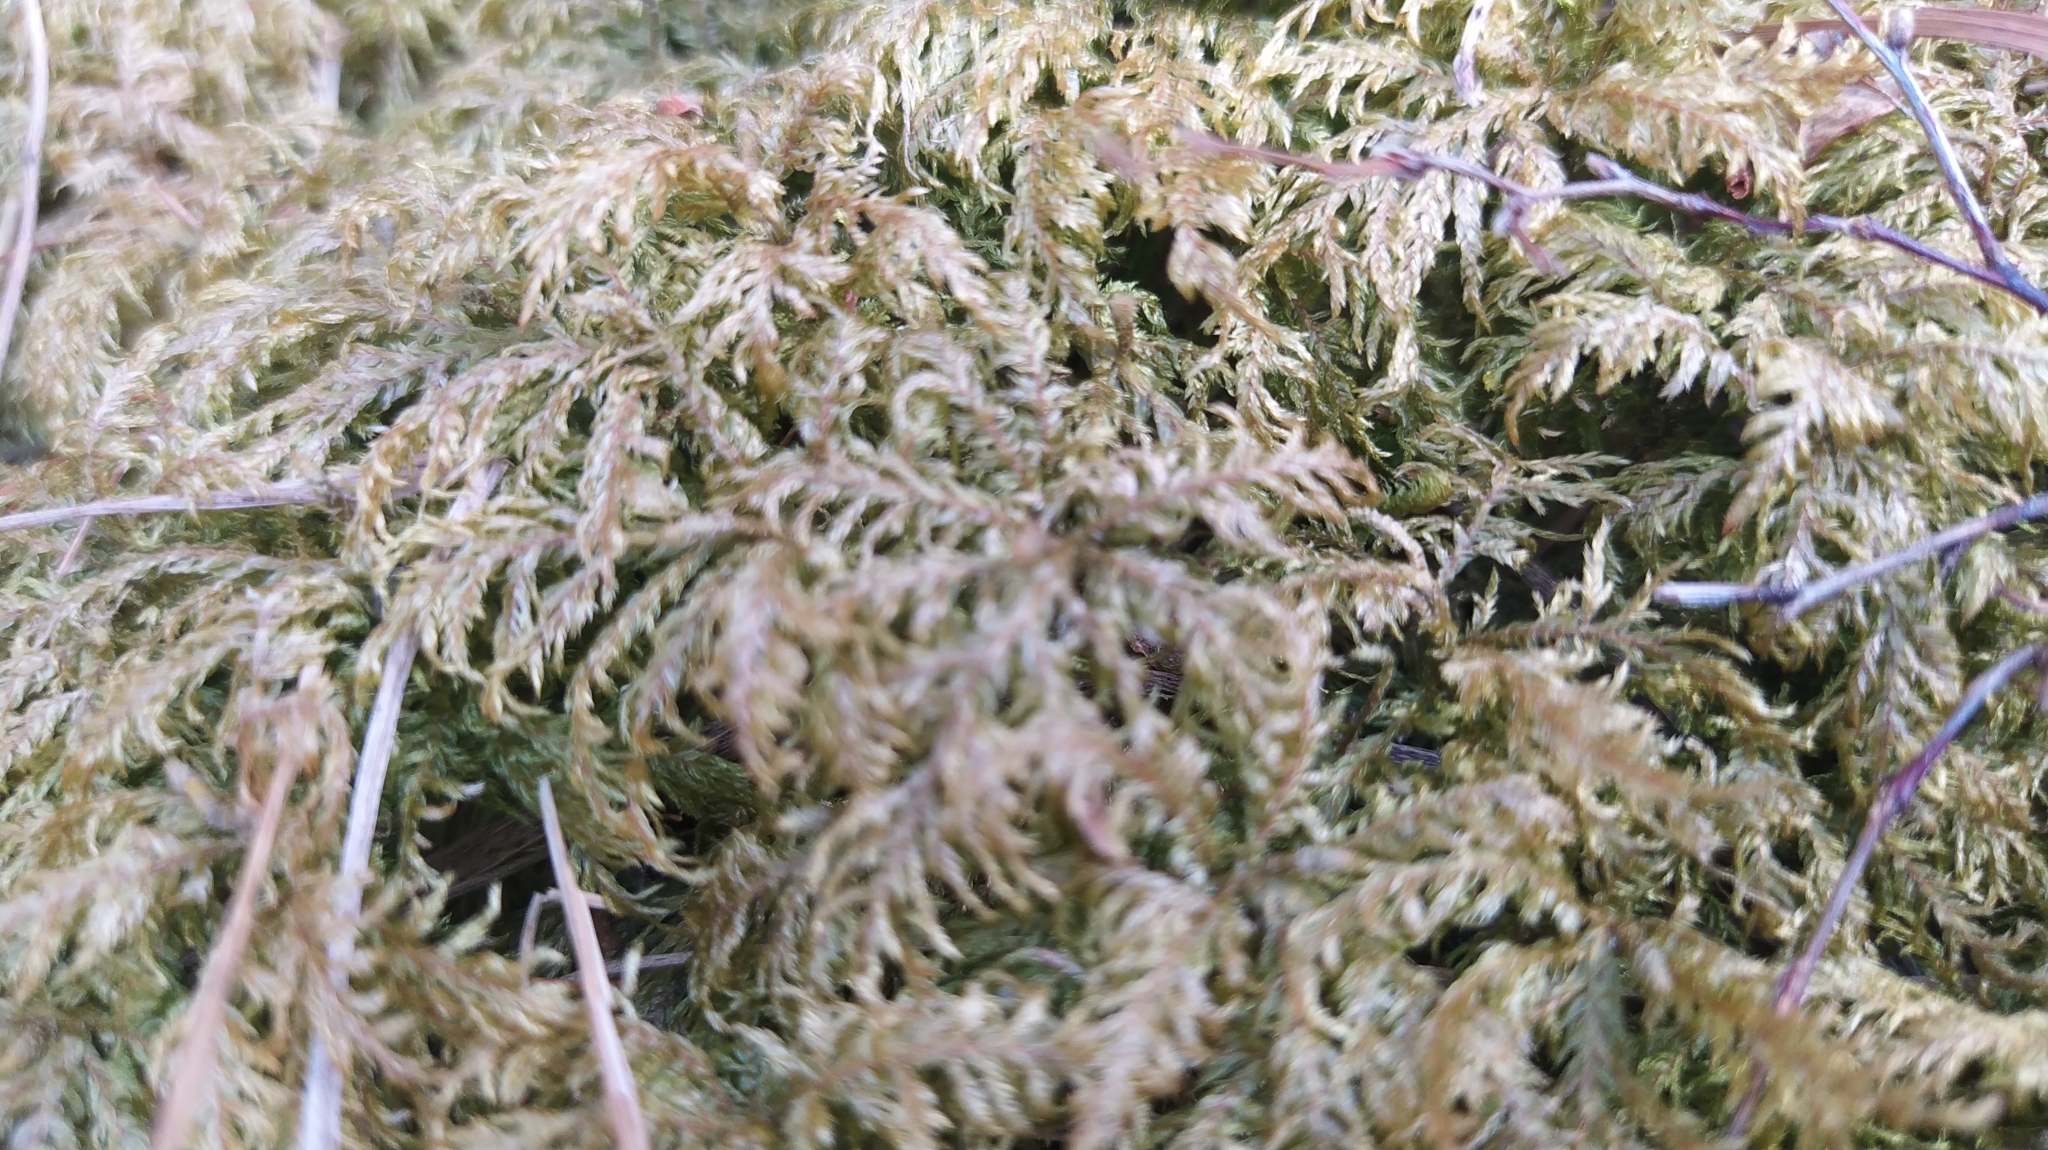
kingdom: Plantae
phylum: Bryophyta
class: Bryopsida
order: Hypnales
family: Hylocomiaceae
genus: Hylocomium
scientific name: Hylocomium splendens
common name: Stairstep moss
